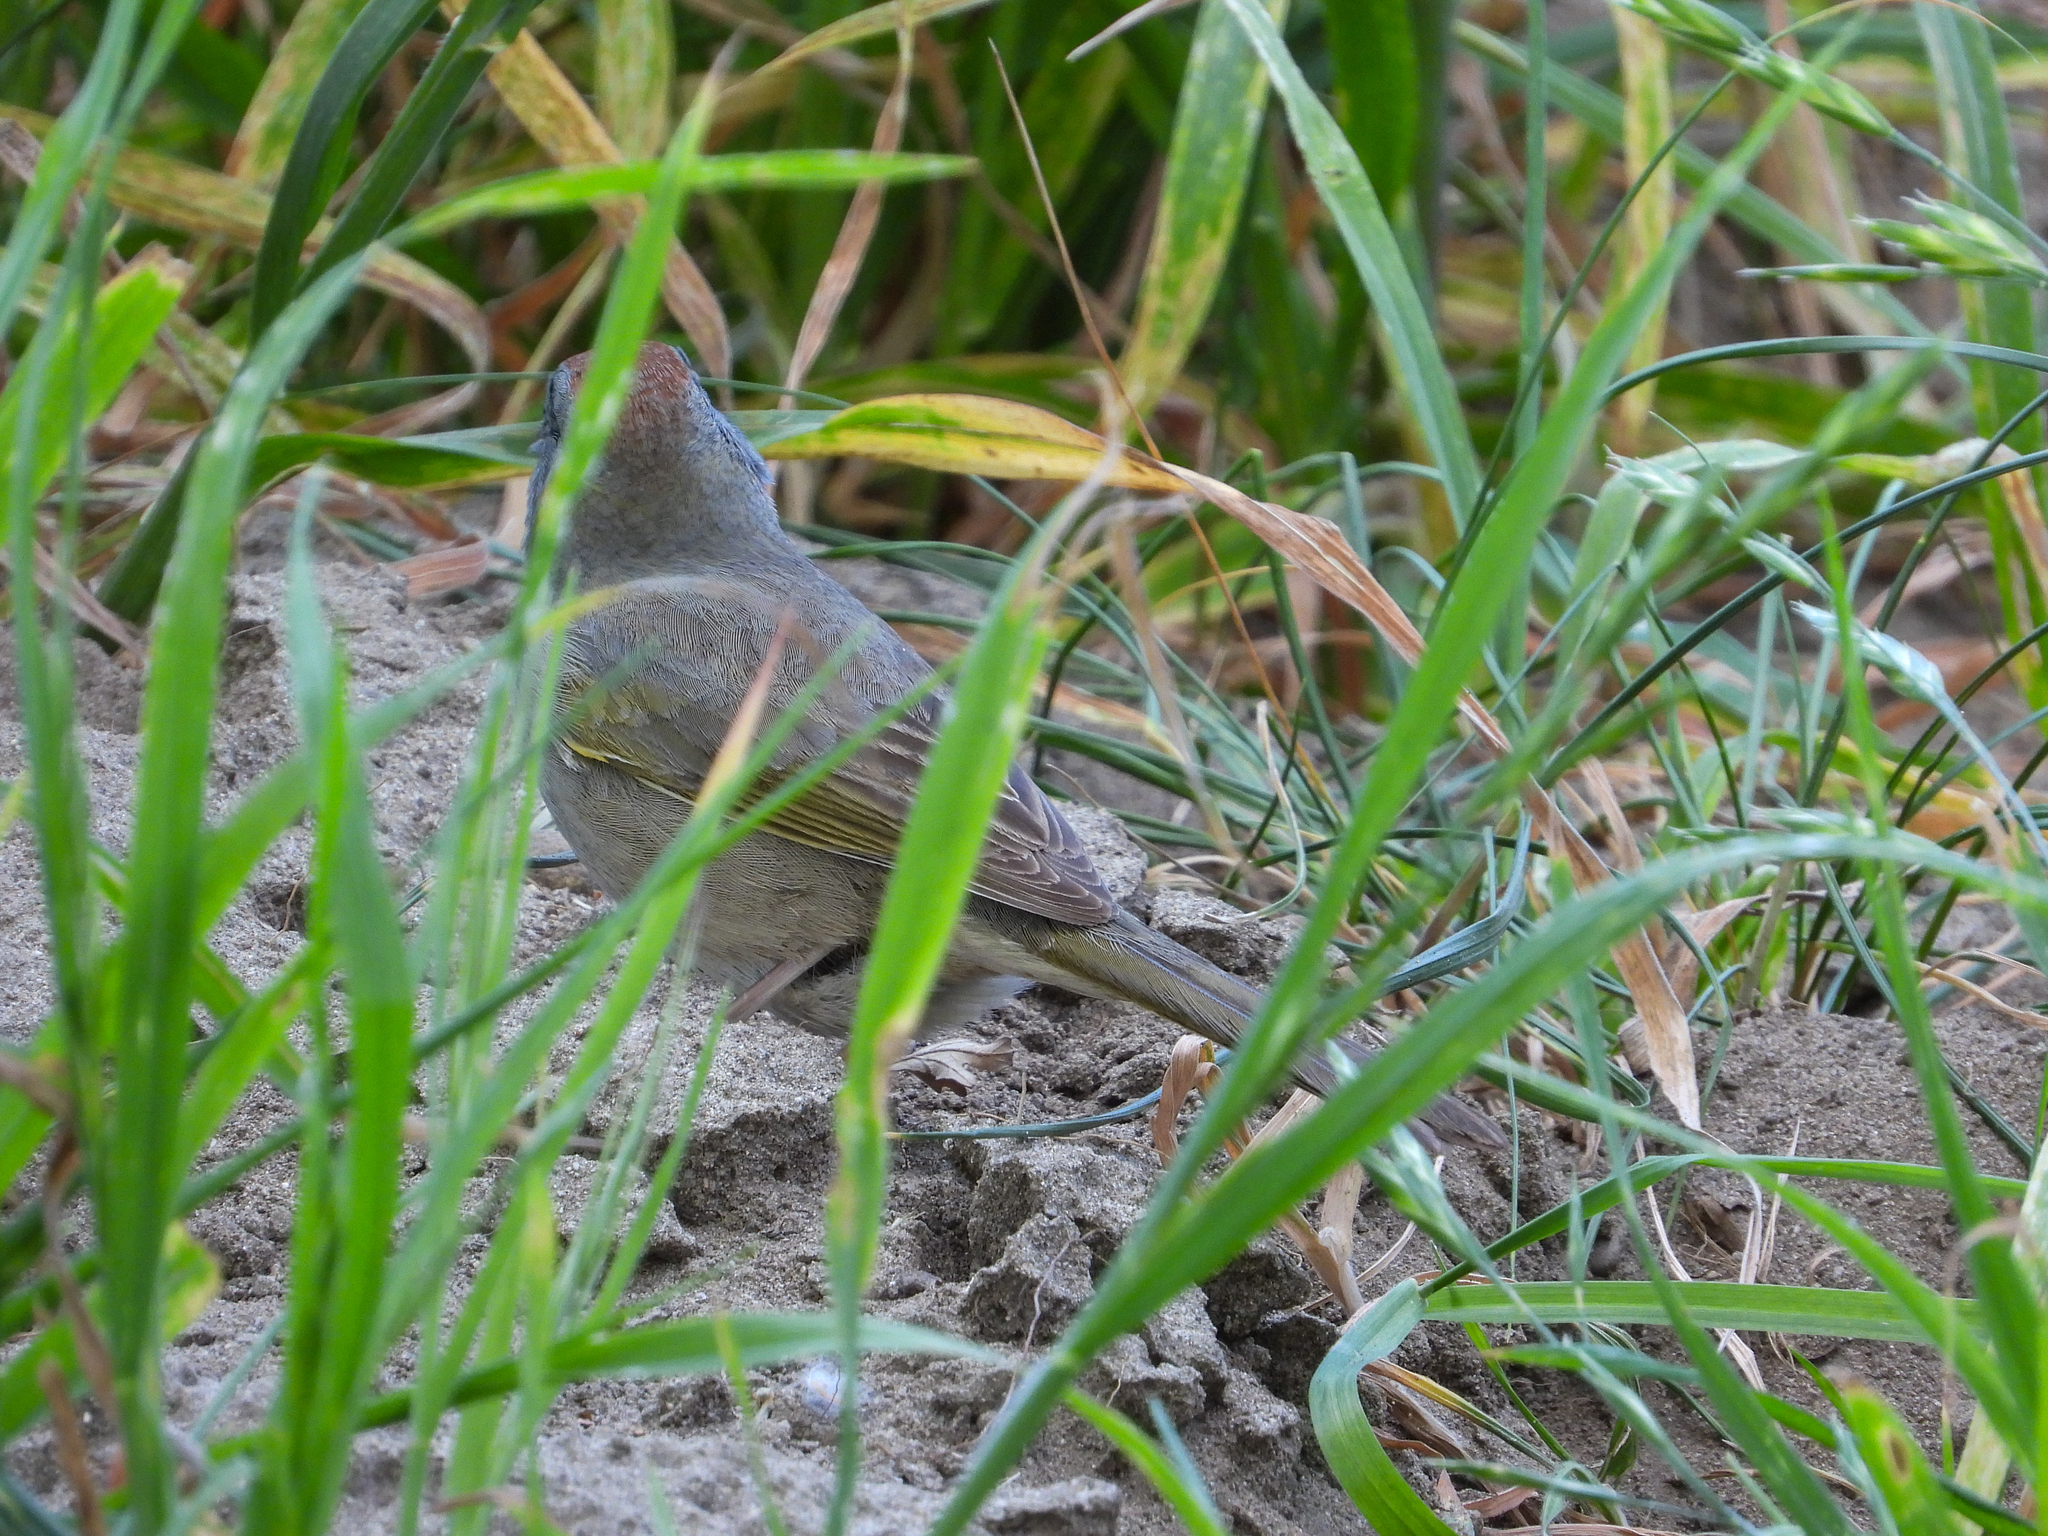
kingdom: Animalia
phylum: Chordata
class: Aves
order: Passeriformes
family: Passerellidae
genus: Pipilo
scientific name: Pipilo chlorurus
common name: Green-tailed towhee
